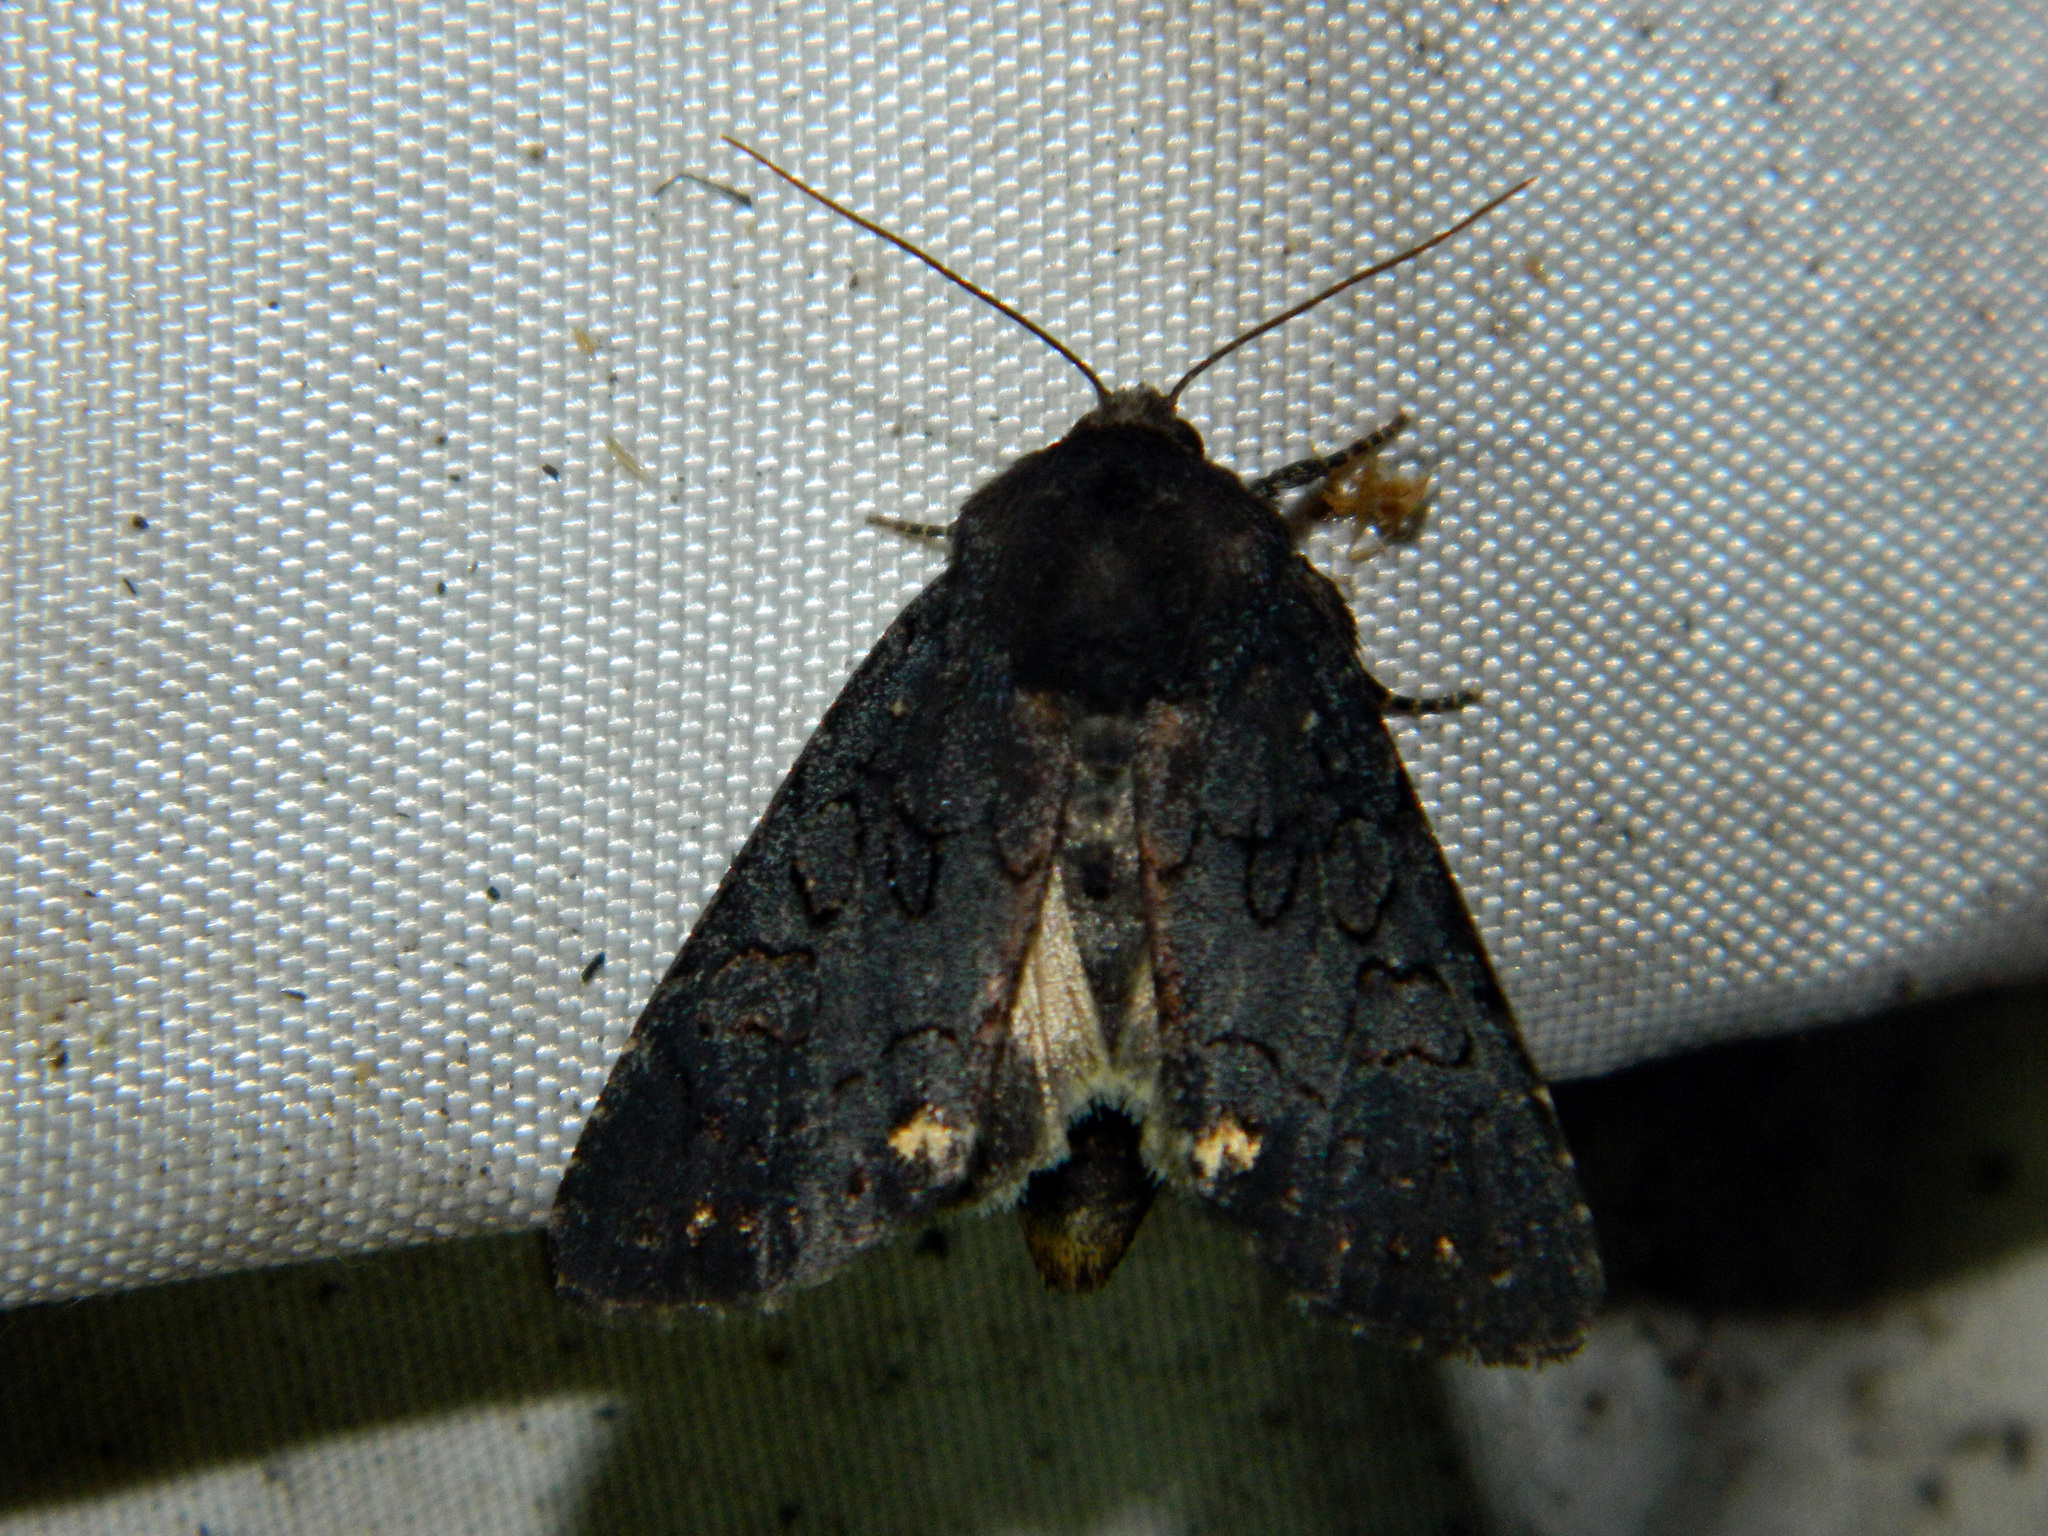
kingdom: Animalia
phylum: Arthropoda
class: Insecta
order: Lepidoptera
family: Noctuidae
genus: Melanchra
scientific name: Melanchra assimilis
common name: Black arches
